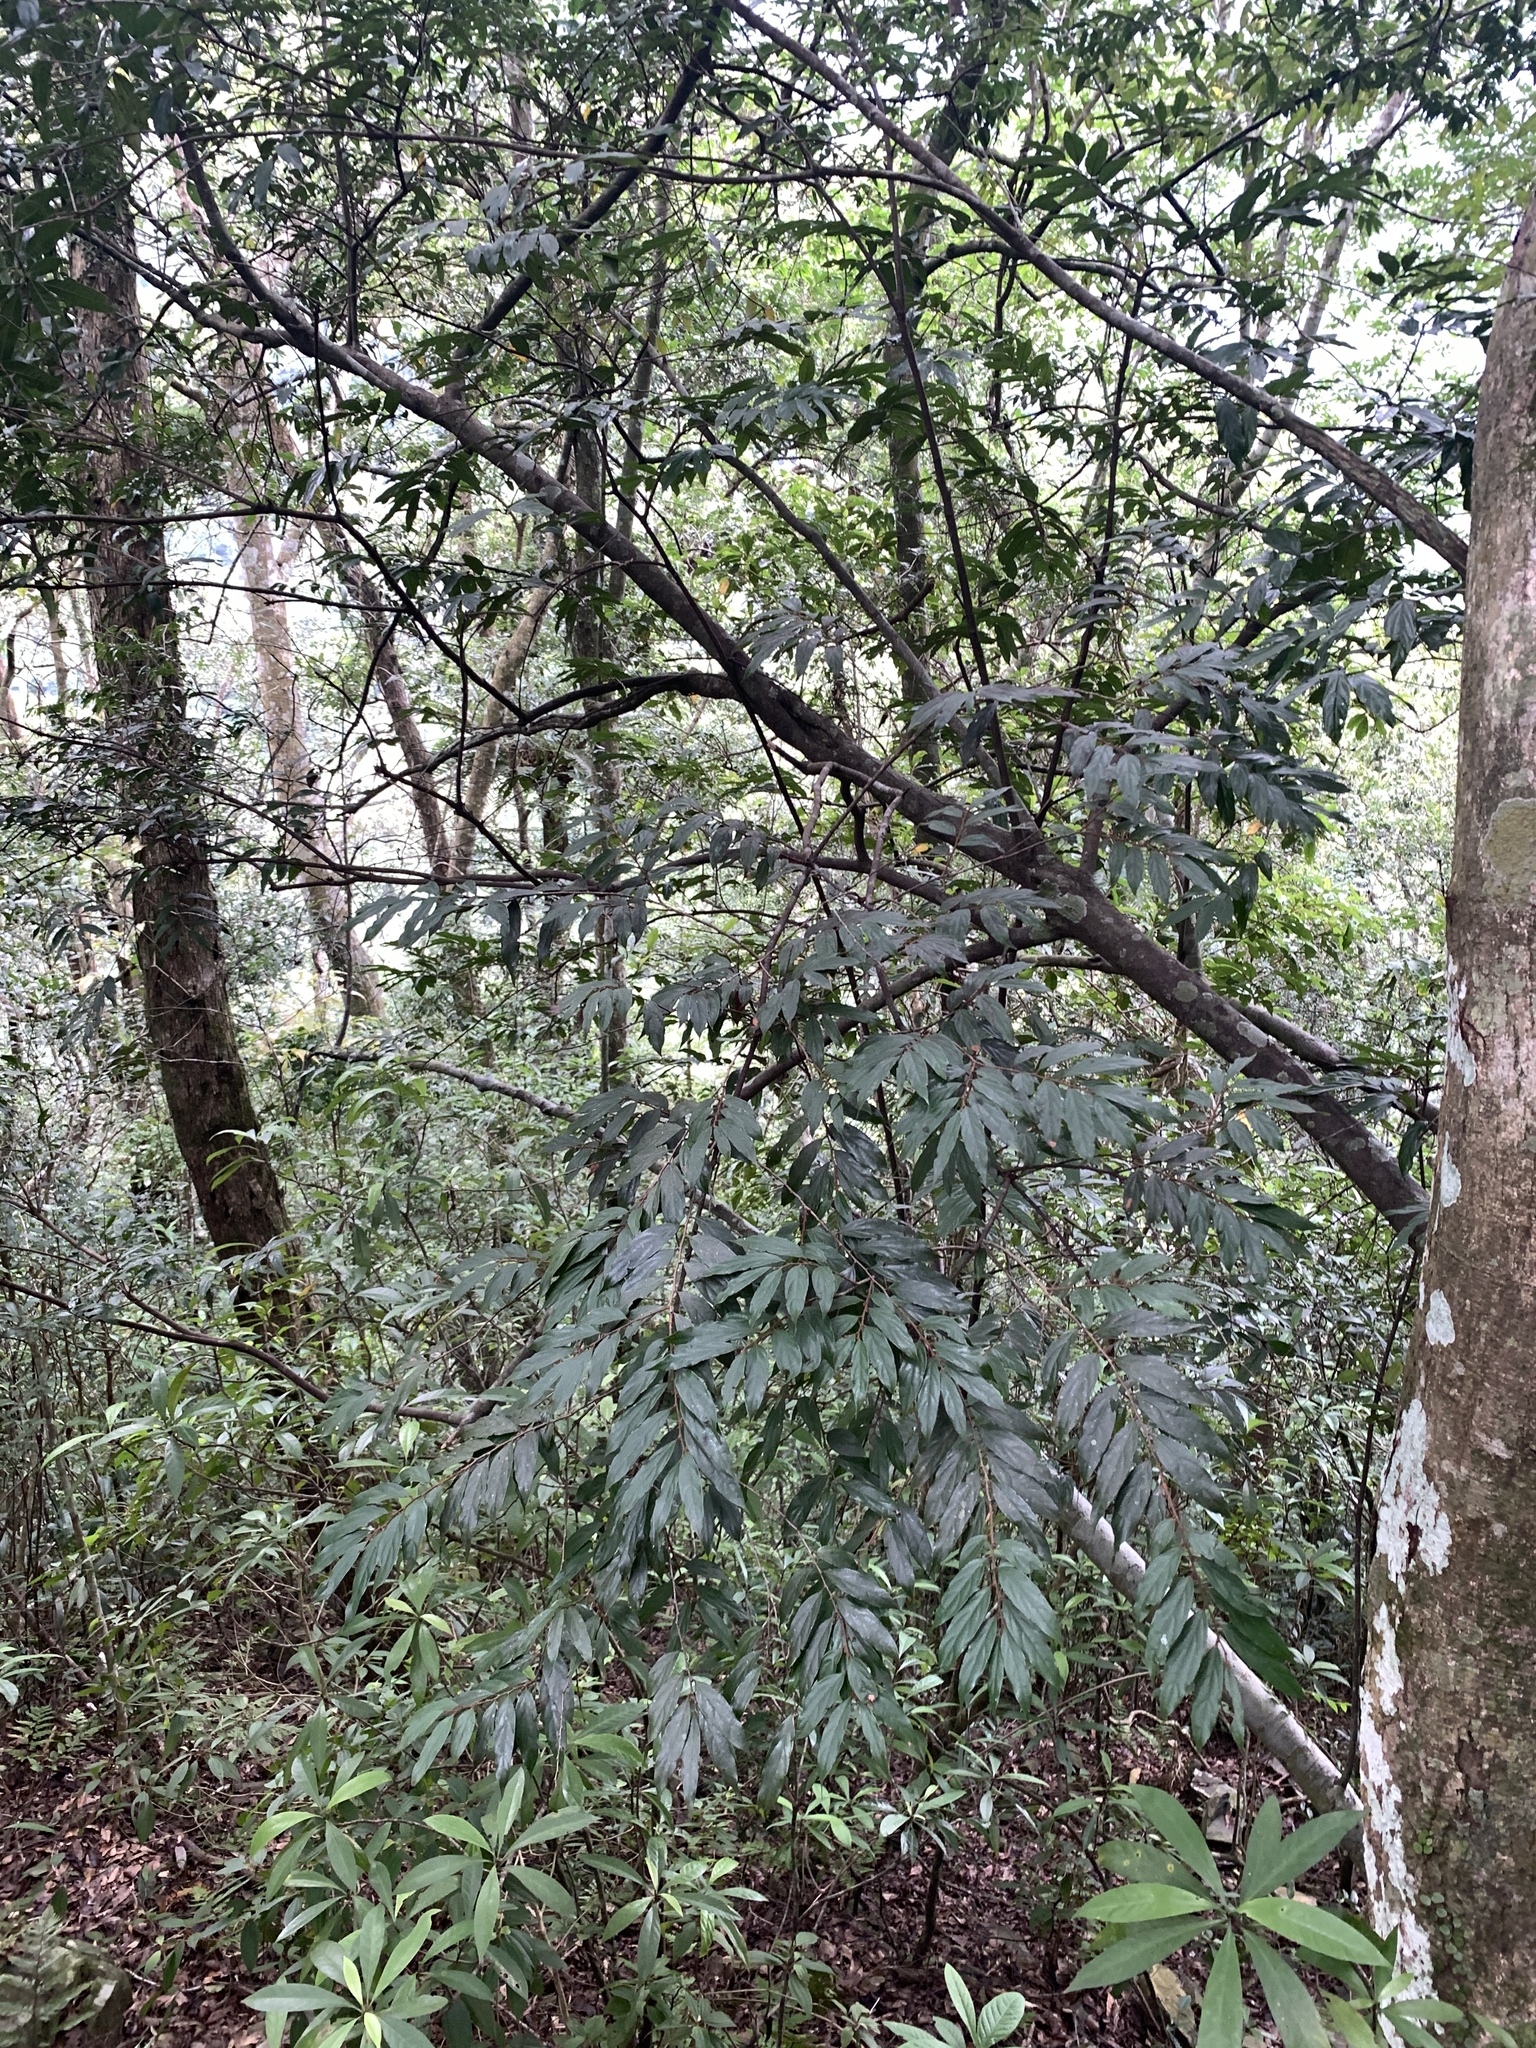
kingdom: Plantae
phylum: Tracheophyta
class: Magnoliopsida
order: Ericales
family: Ebenaceae
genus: Diospyros
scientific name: Diospyros eriantha
